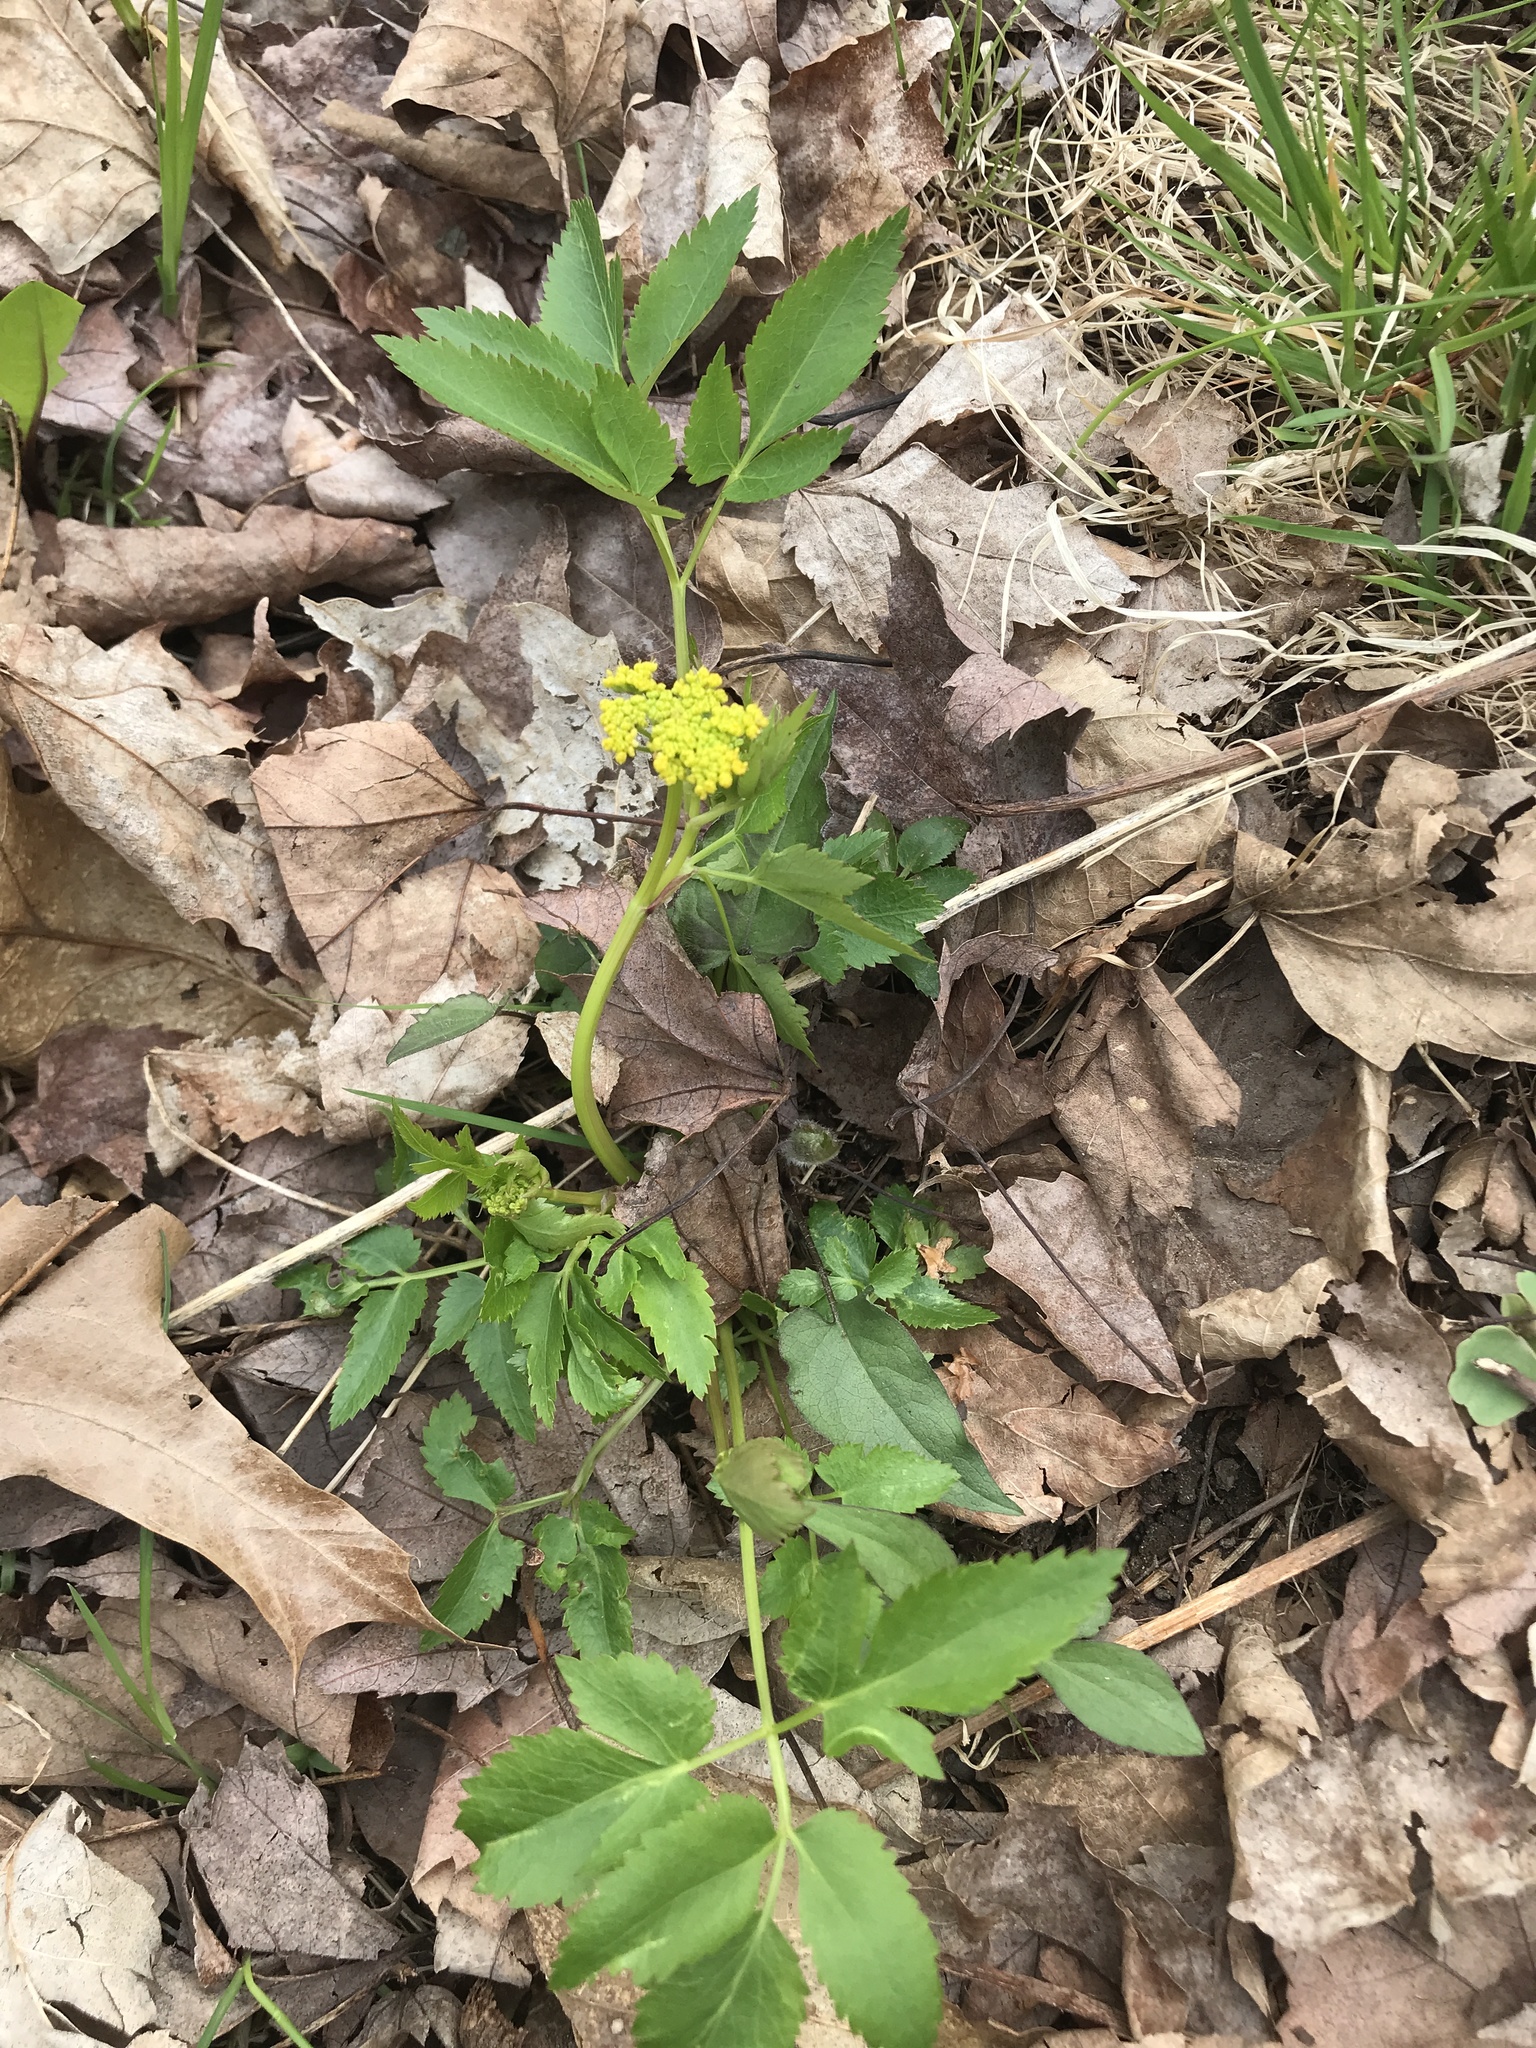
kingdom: Plantae
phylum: Tracheophyta
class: Magnoliopsida
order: Apiales
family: Apiaceae
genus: Zizia
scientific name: Zizia aurea
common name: Golden alexanders
